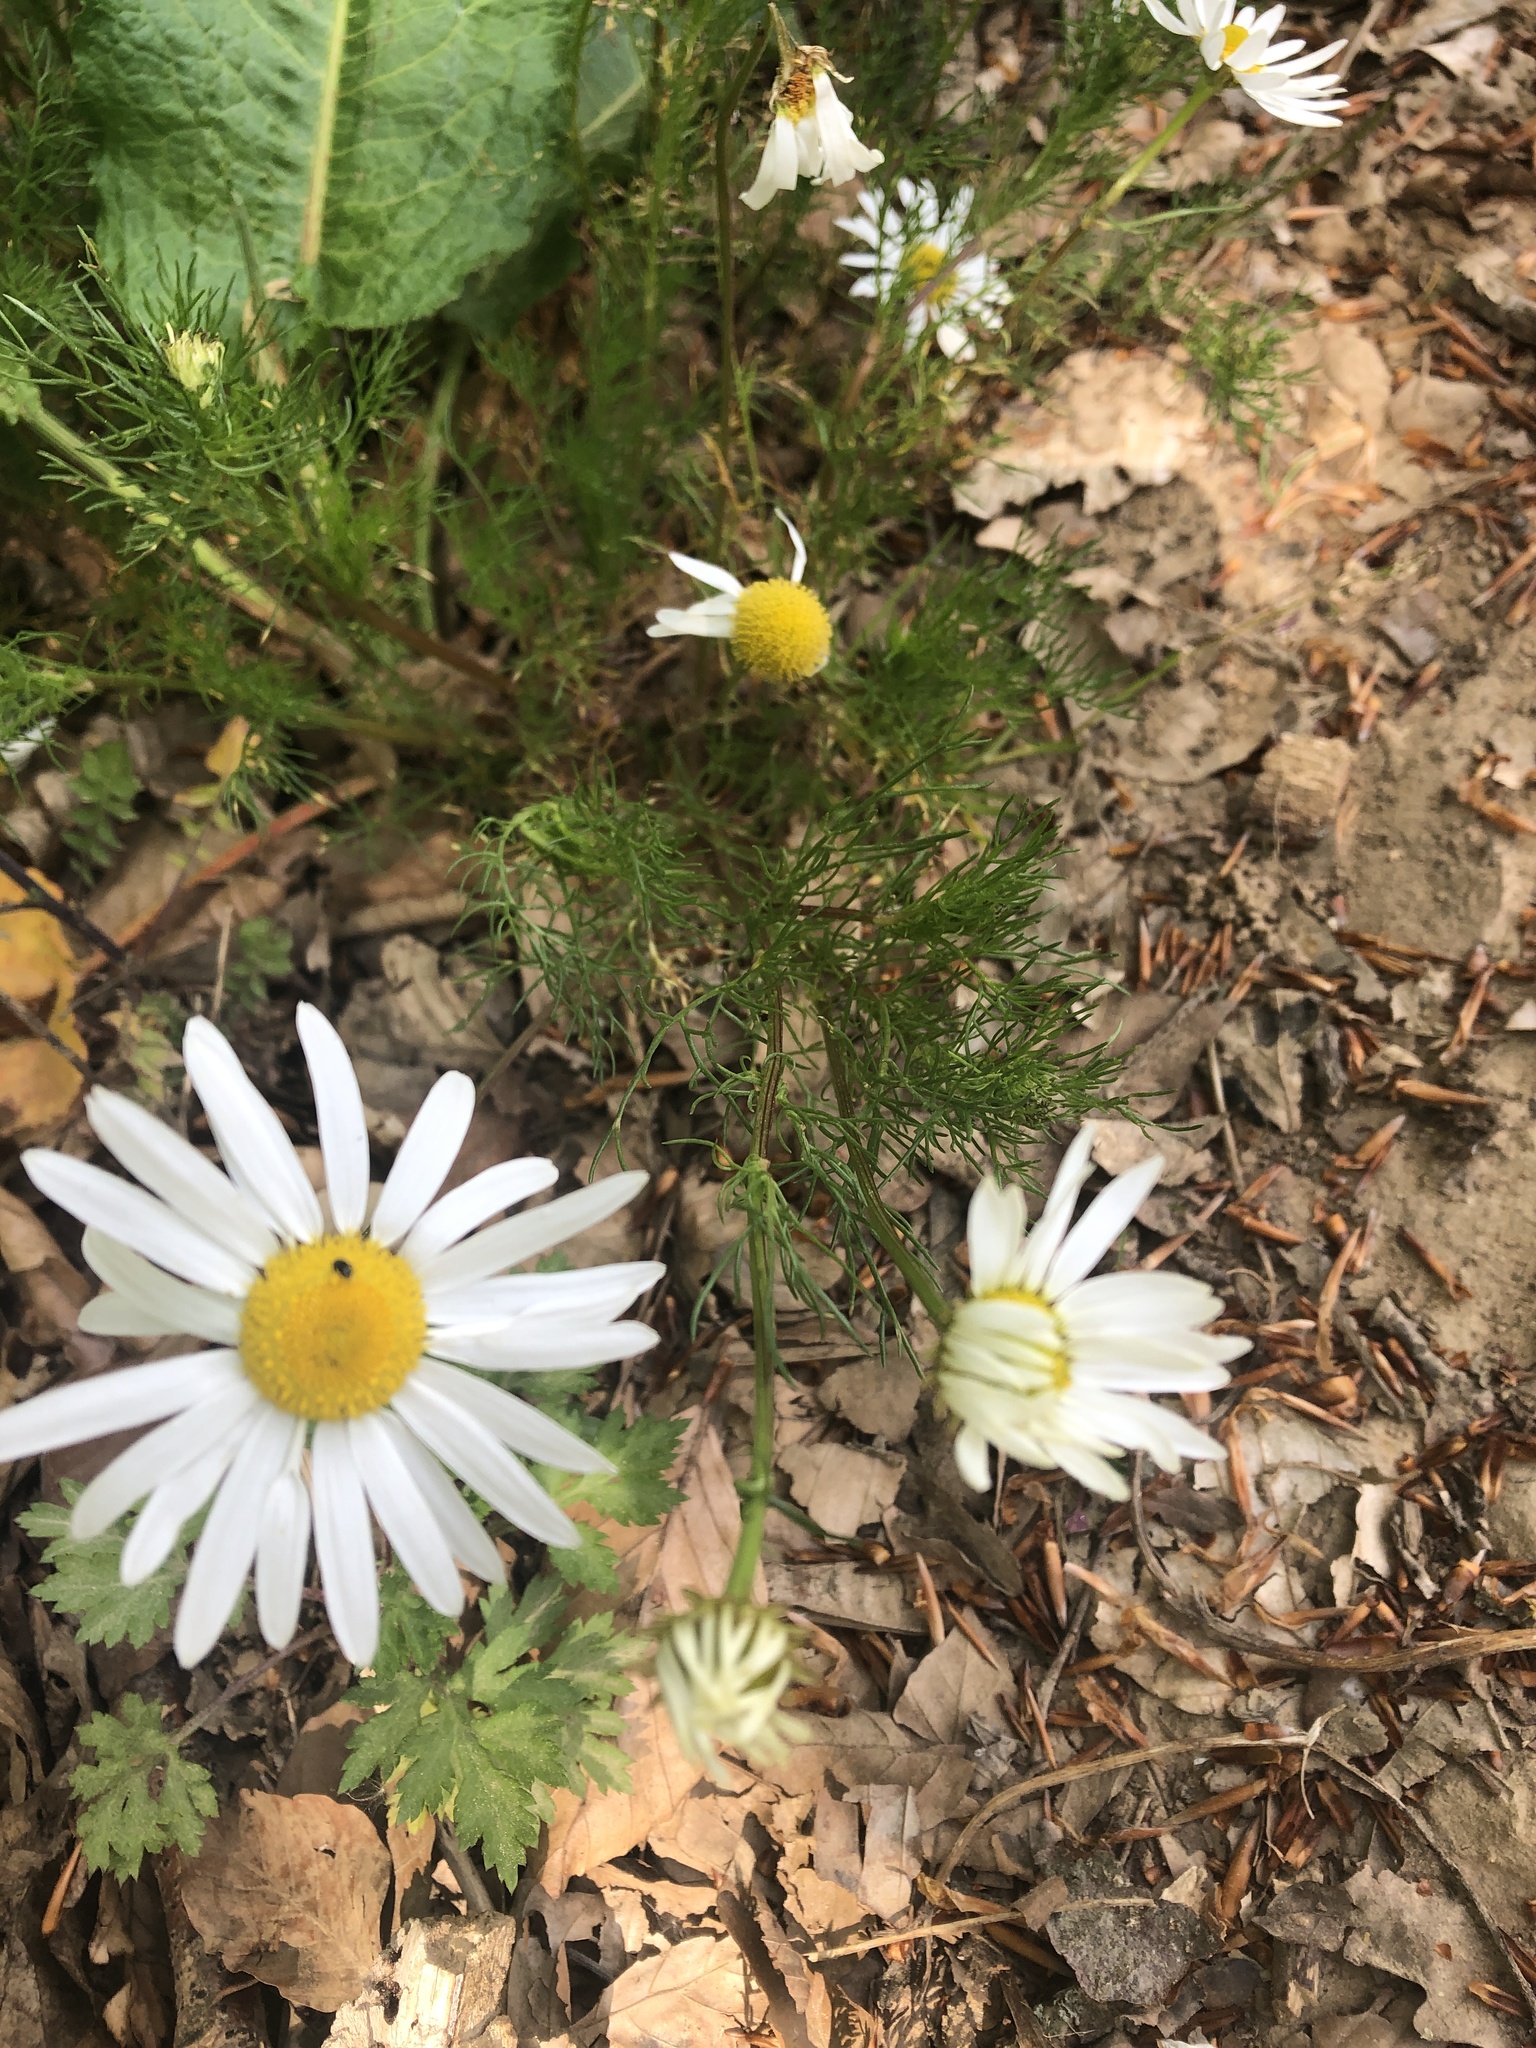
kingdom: Plantae
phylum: Tracheophyta
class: Magnoliopsida
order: Asterales
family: Asteraceae
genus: Tripleurospermum
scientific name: Tripleurospermum inodorum
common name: Scentless mayweed
